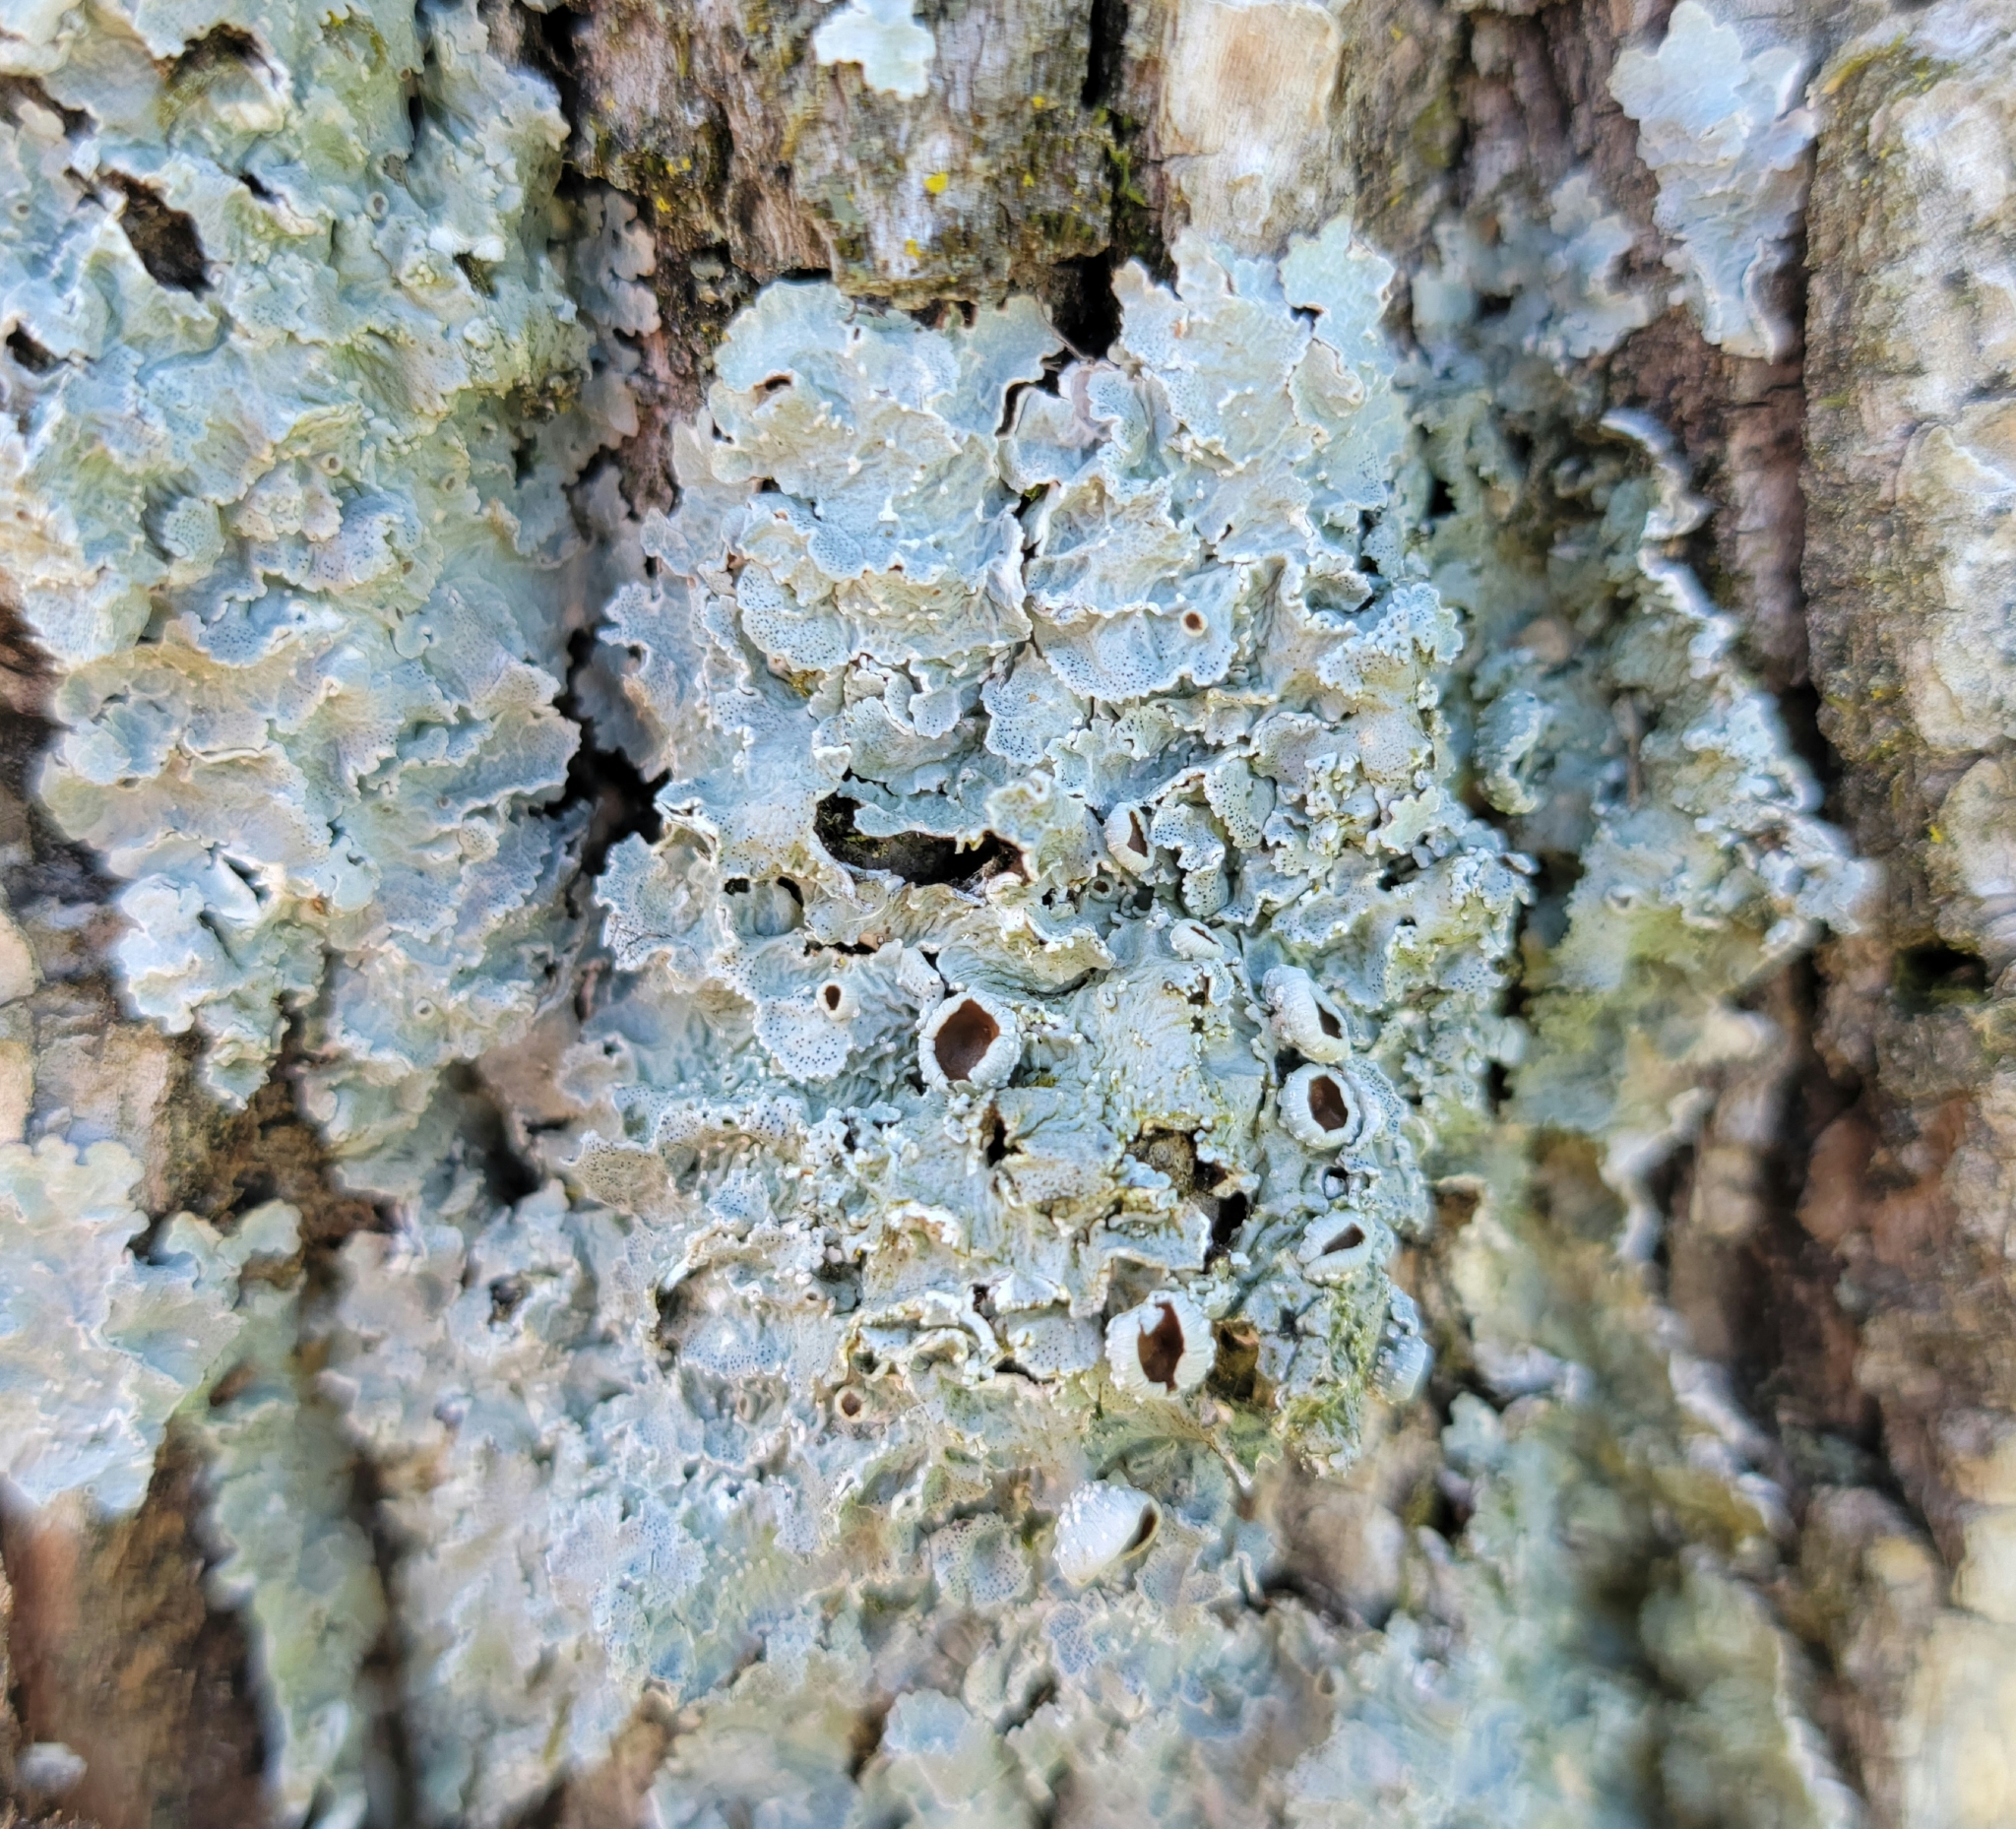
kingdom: Fungi
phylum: Ascomycota
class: Lecanoromycetes
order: Lecanorales
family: Parmeliaceae
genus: Punctelia
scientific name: Punctelia bolliana
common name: Eastern speckled shield lichen
